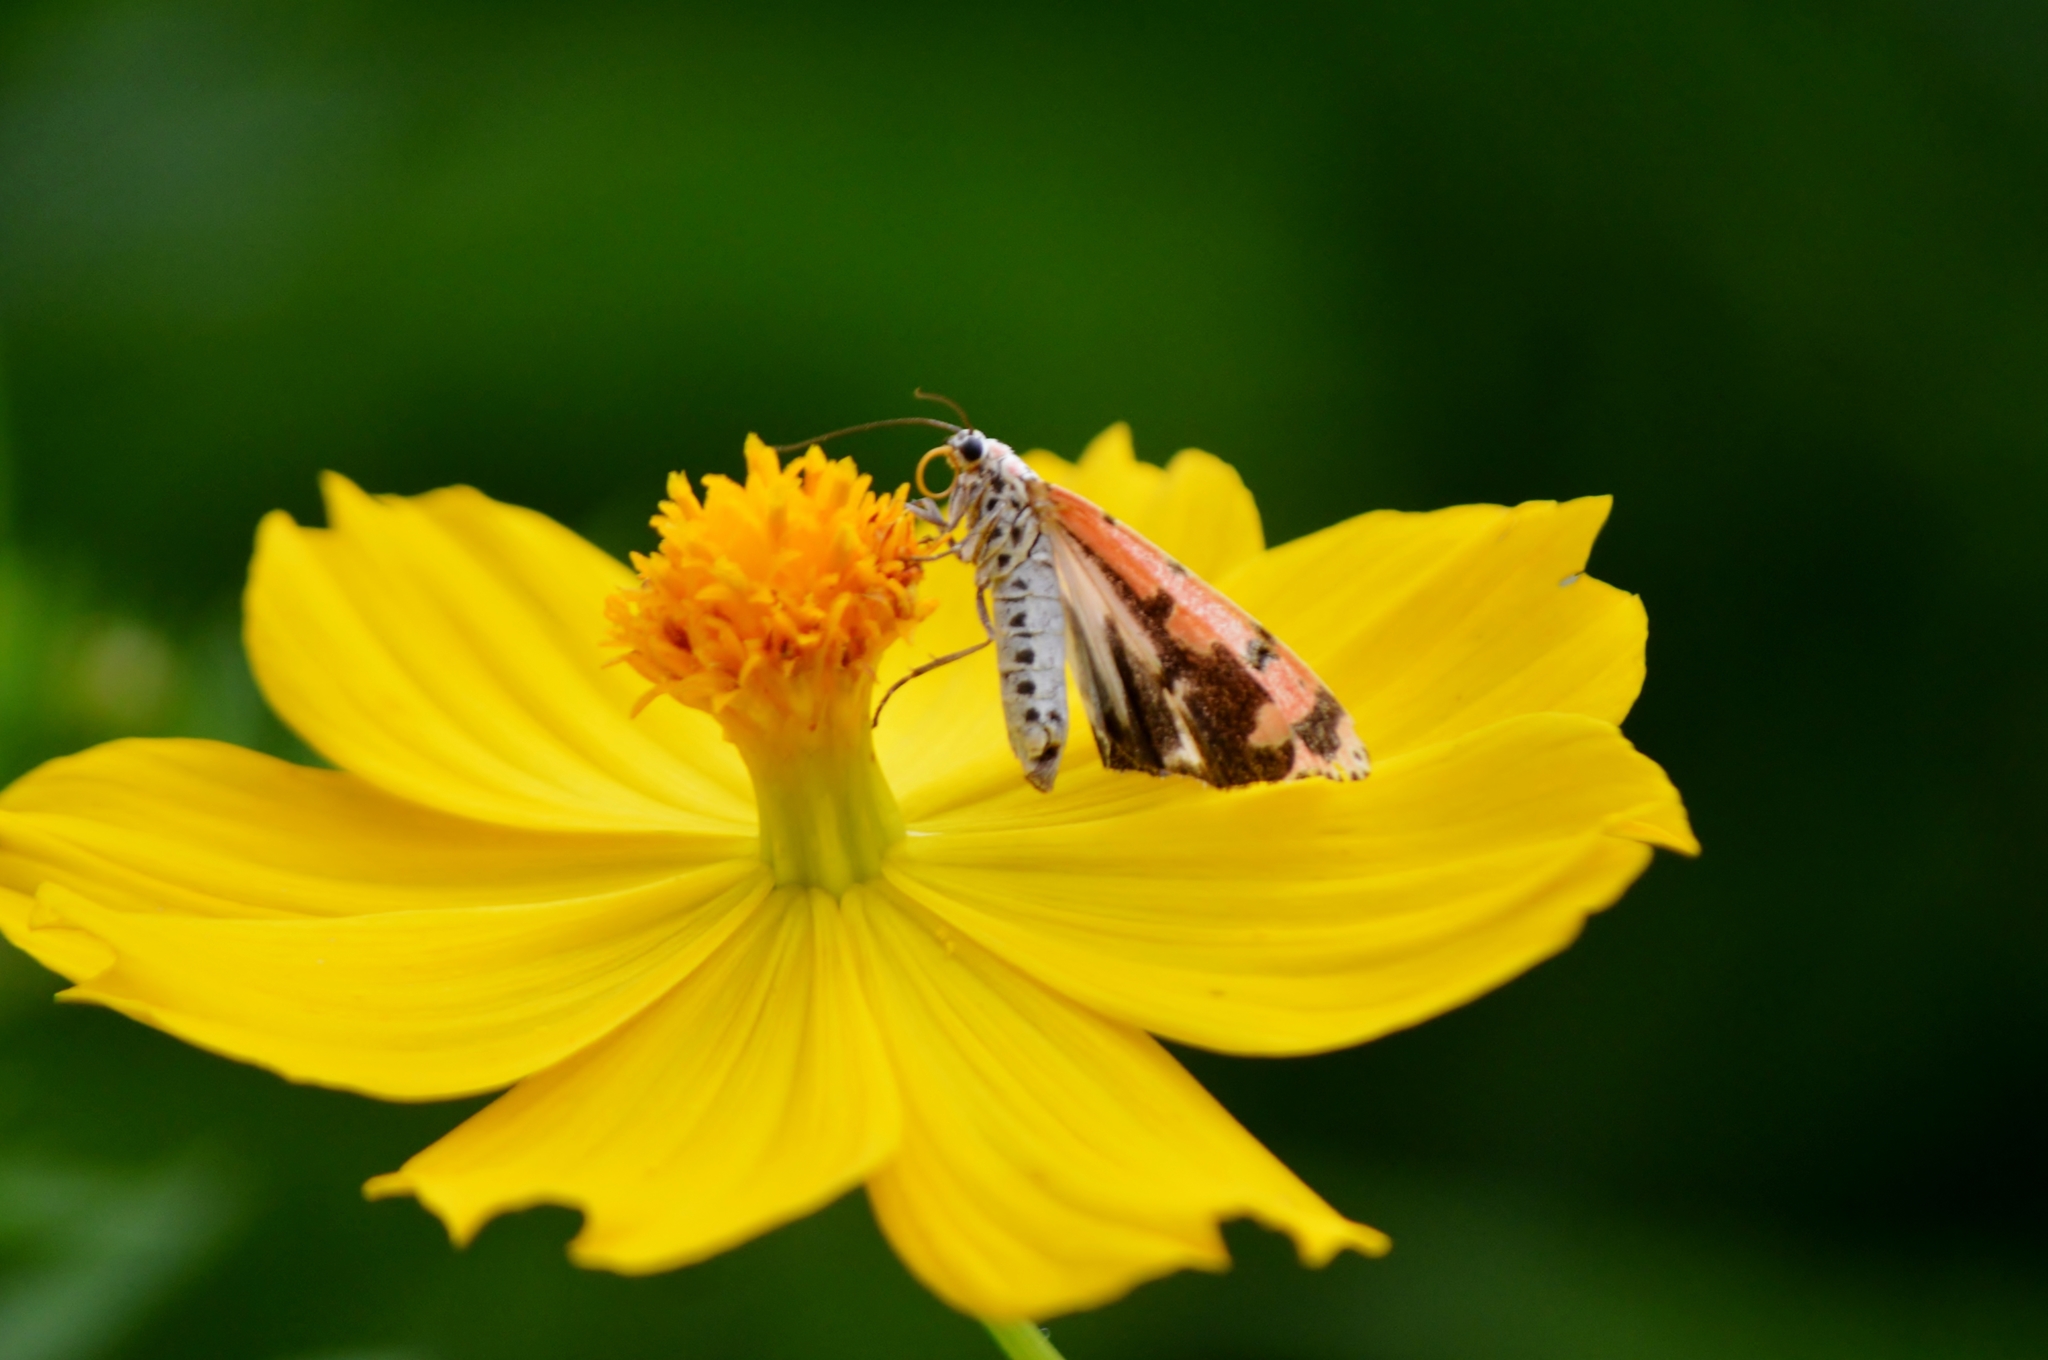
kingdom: Animalia
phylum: Arthropoda
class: Insecta
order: Lepidoptera
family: Erebidae
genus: Utetheisa
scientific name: Utetheisa ornatrix
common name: Beautiful utetheisa
